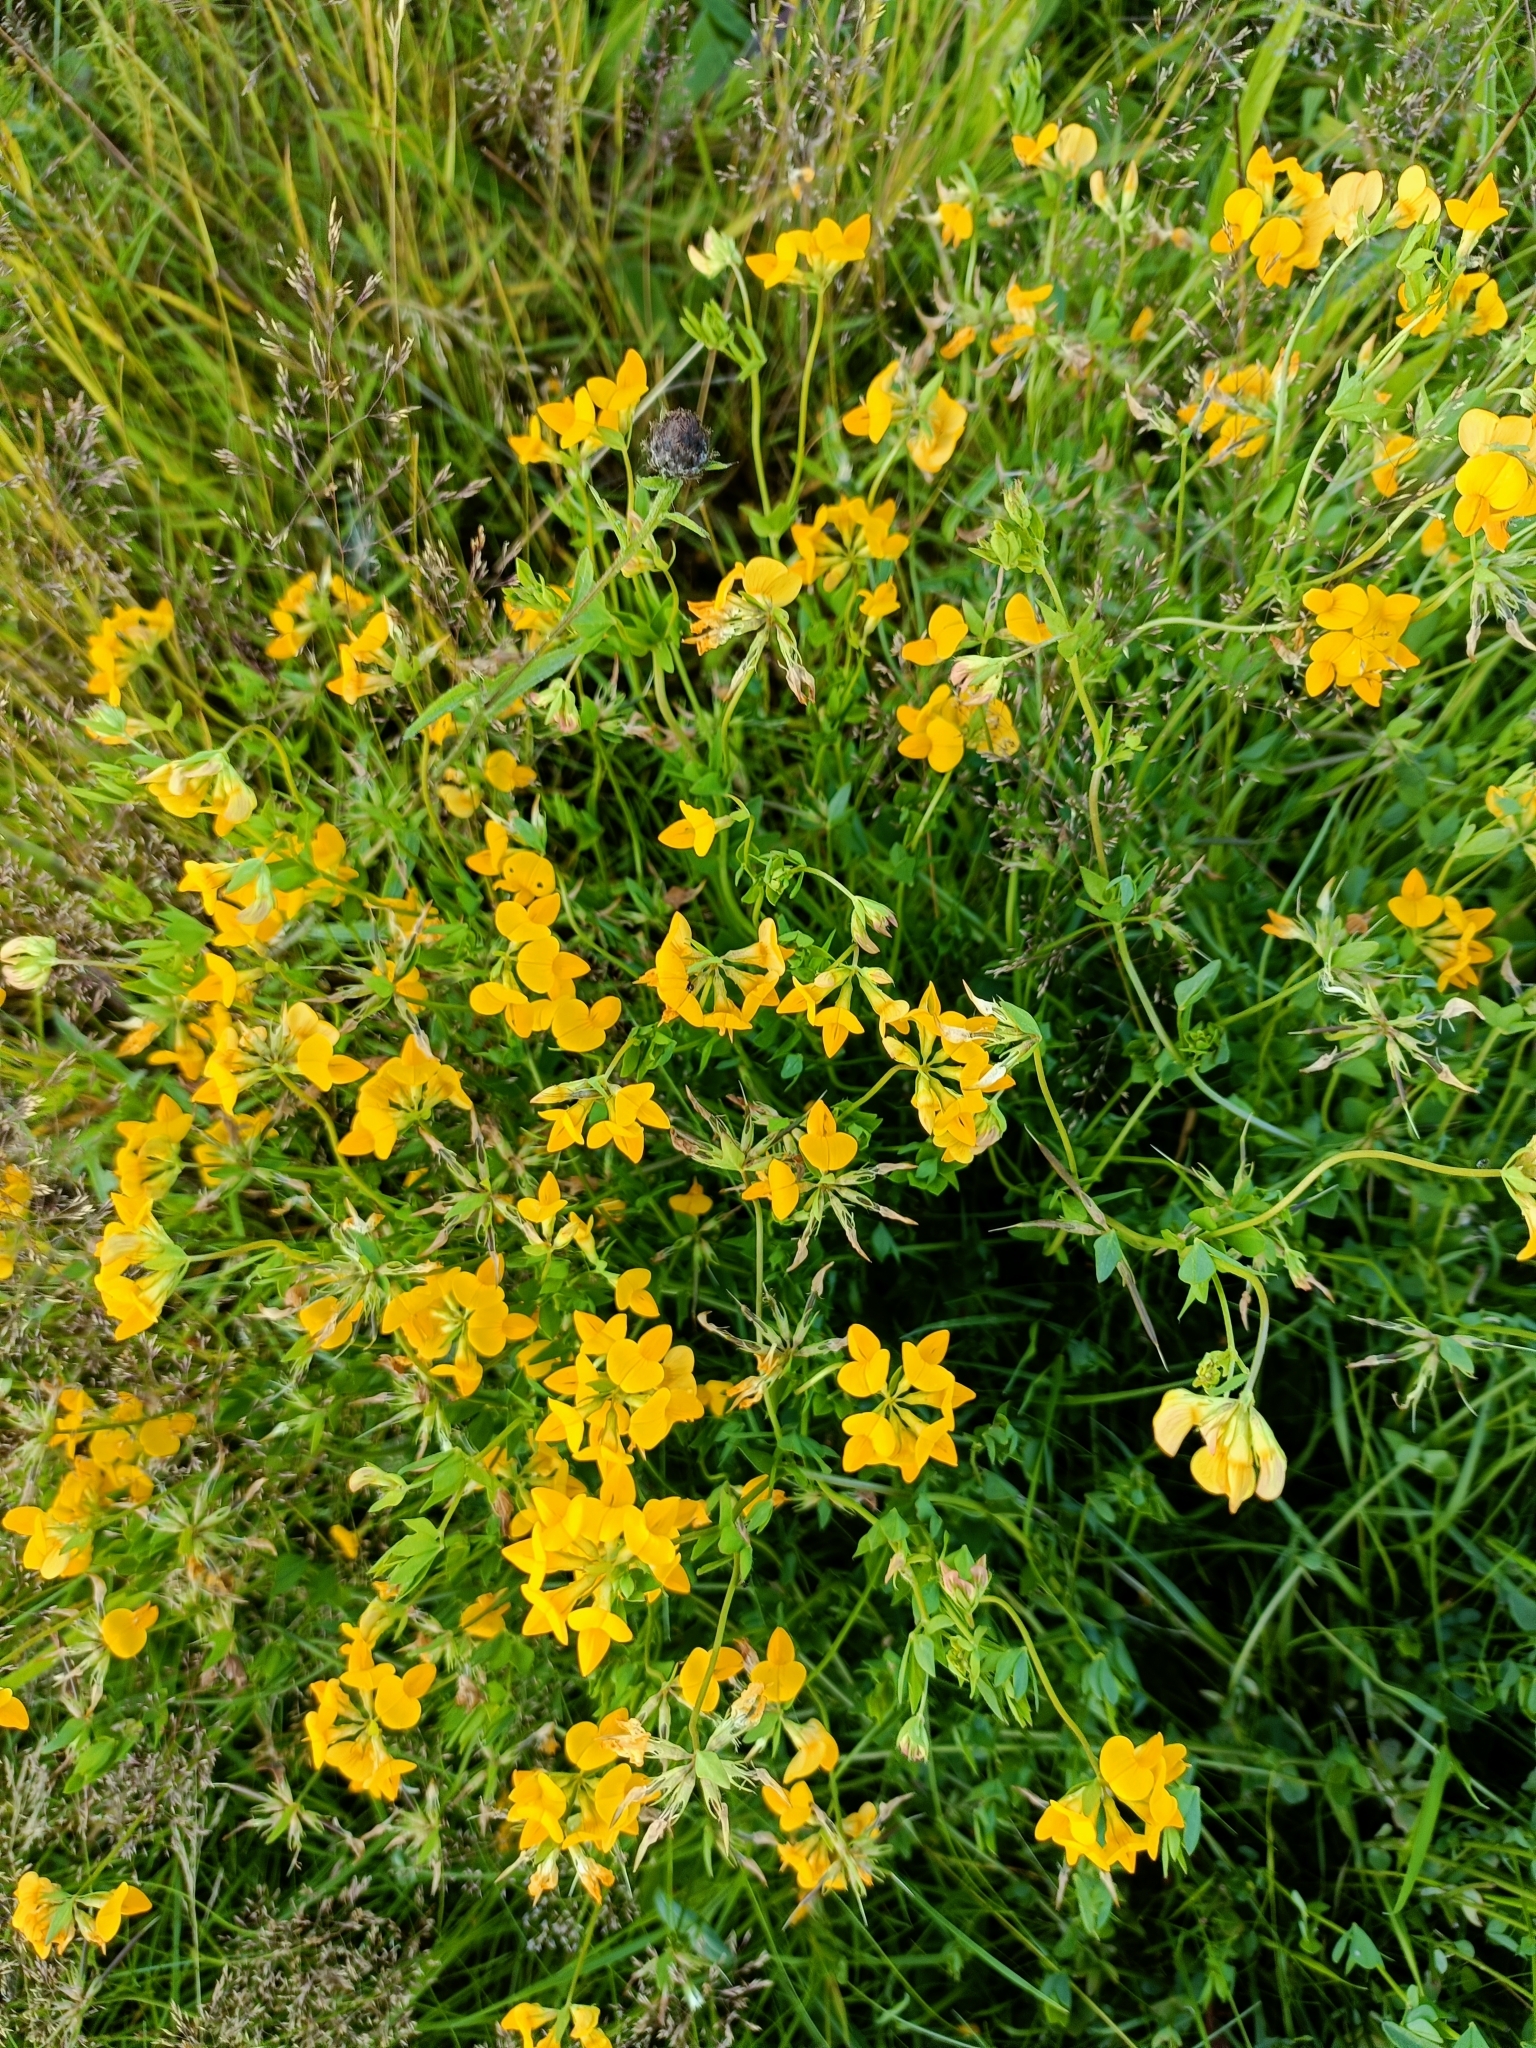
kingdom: Plantae
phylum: Tracheophyta
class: Magnoliopsida
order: Fabales
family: Fabaceae
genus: Lotus
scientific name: Lotus corniculatus
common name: Common bird's-foot-trefoil
